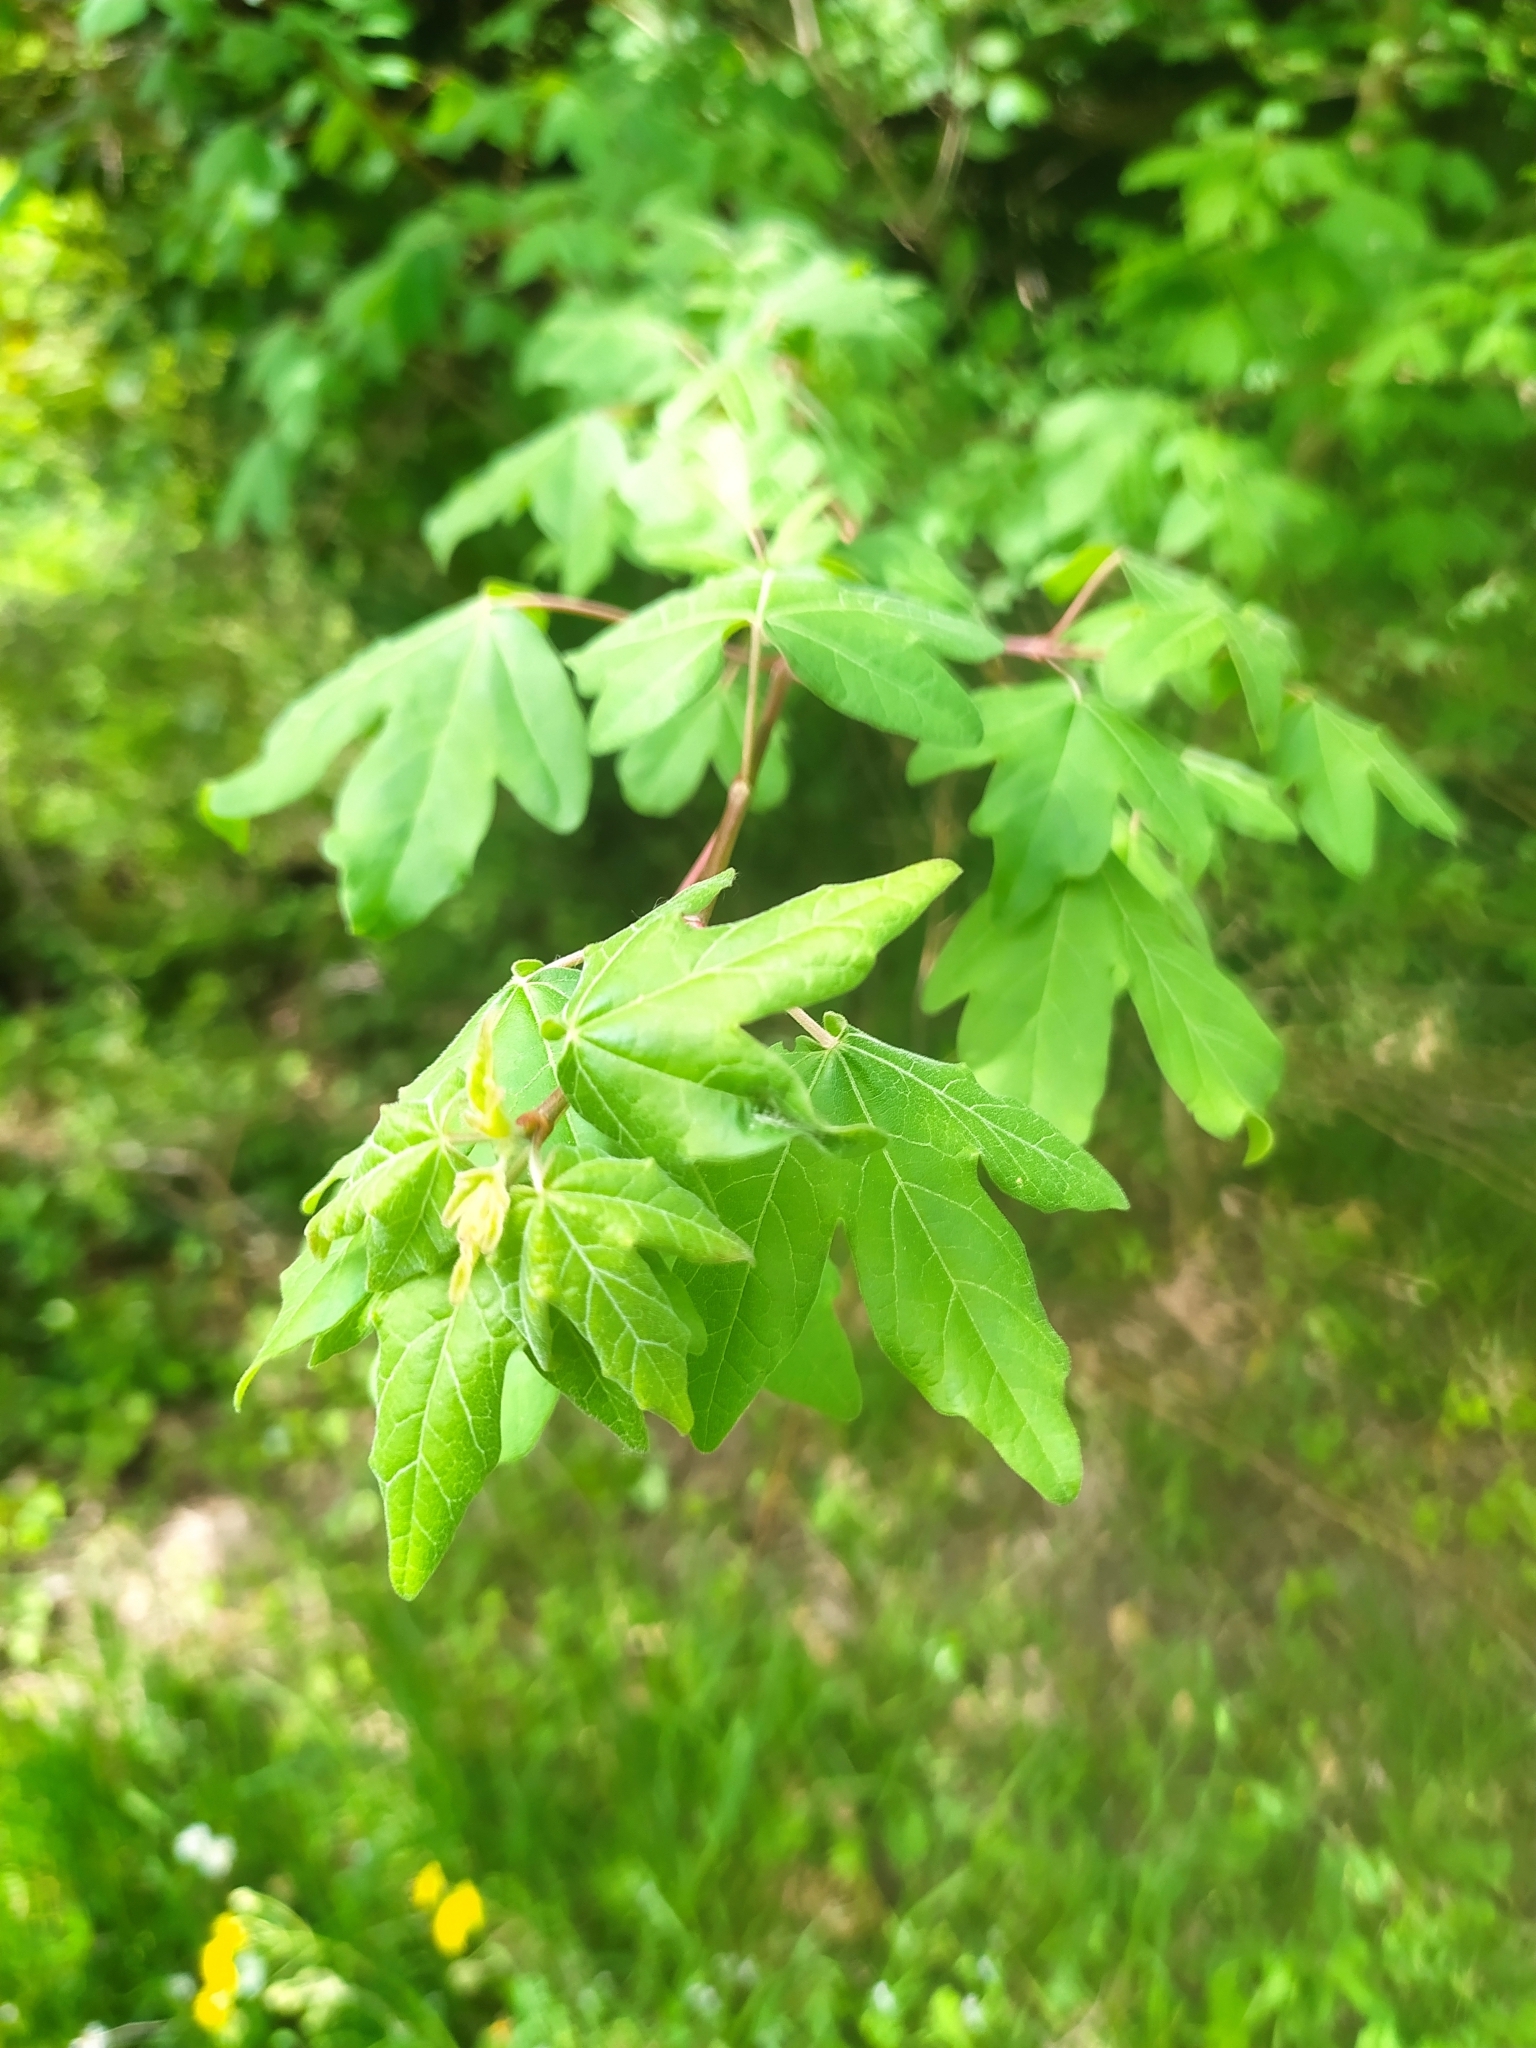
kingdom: Plantae
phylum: Tracheophyta
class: Magnoliopsida
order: Sapindales
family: Sapindaceae
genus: Acer
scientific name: Acer campestre
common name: Field maple
